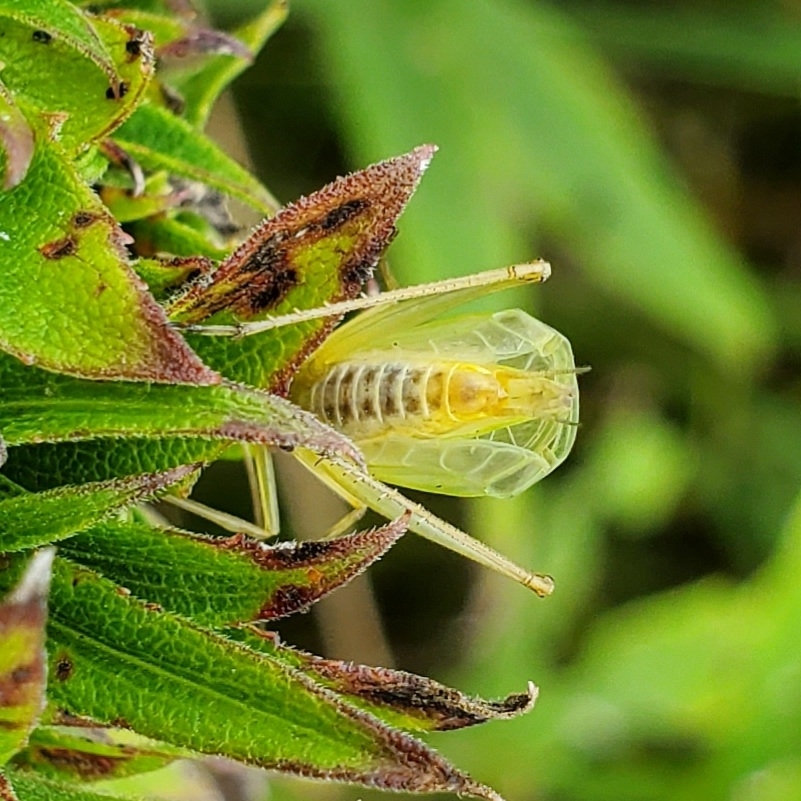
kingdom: Animalia
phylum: Arthropoda
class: Insecta
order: Orthoptera
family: Gryllidae
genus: Oecanthus
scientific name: Oecanthus fultoni
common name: Snowy tree cricket
